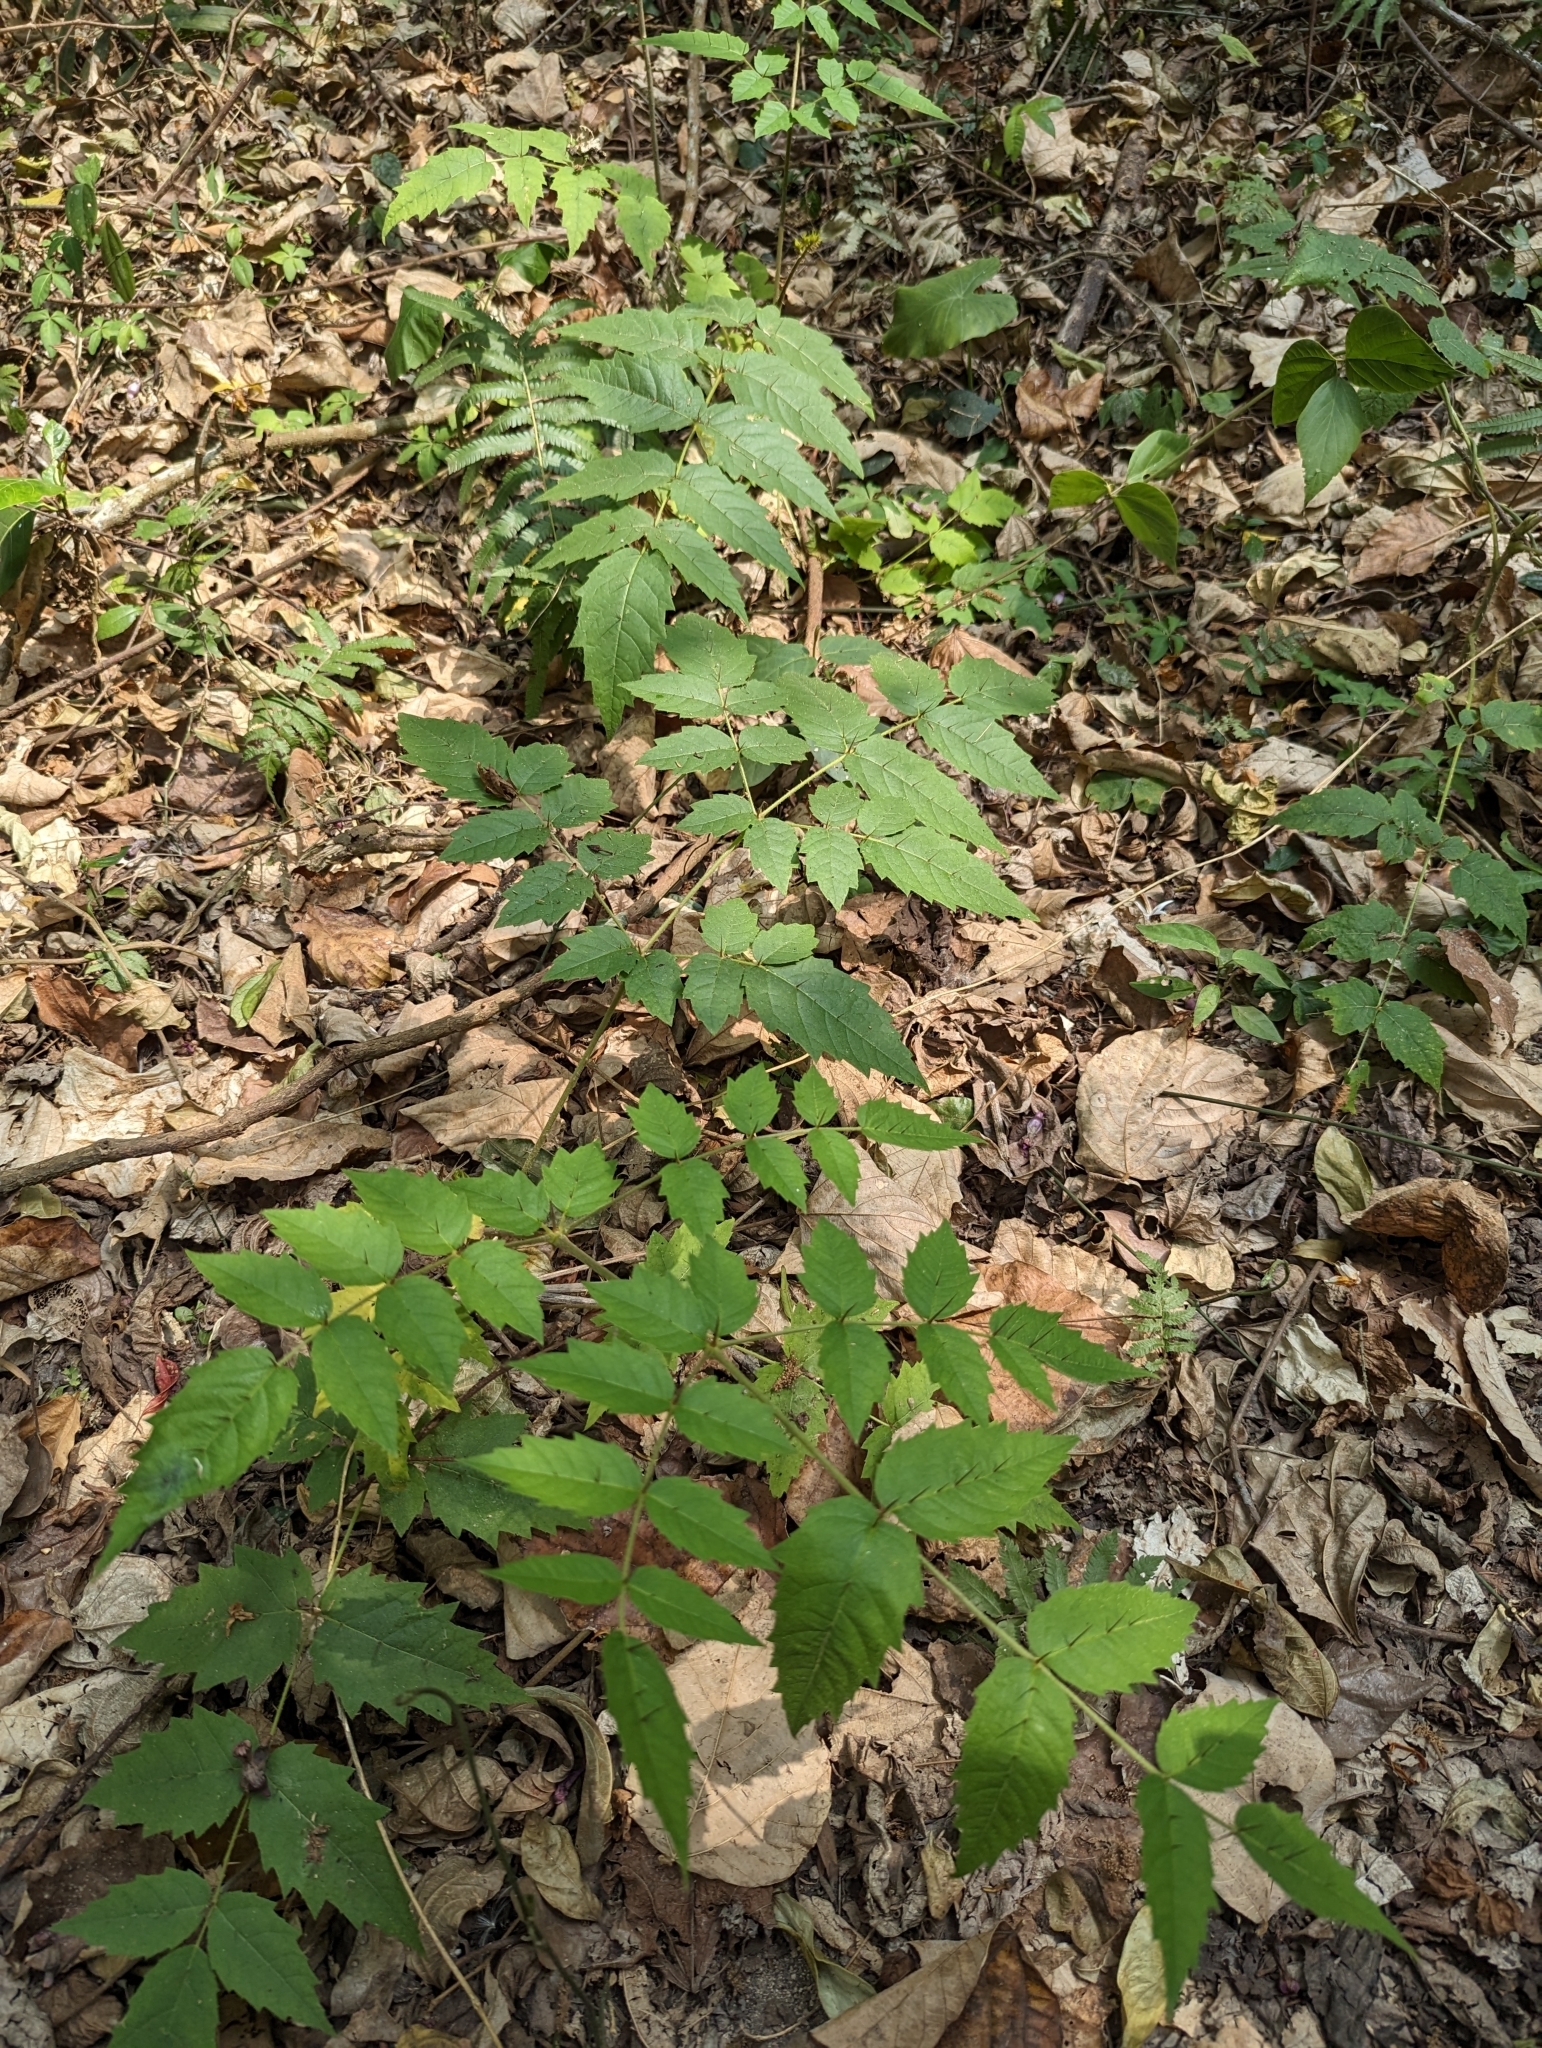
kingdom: Plantae
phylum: Tracheophyta
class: Magnoliopsida
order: Apiales
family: Araliaceae
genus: Aralia
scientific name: Aralia decaisneana
